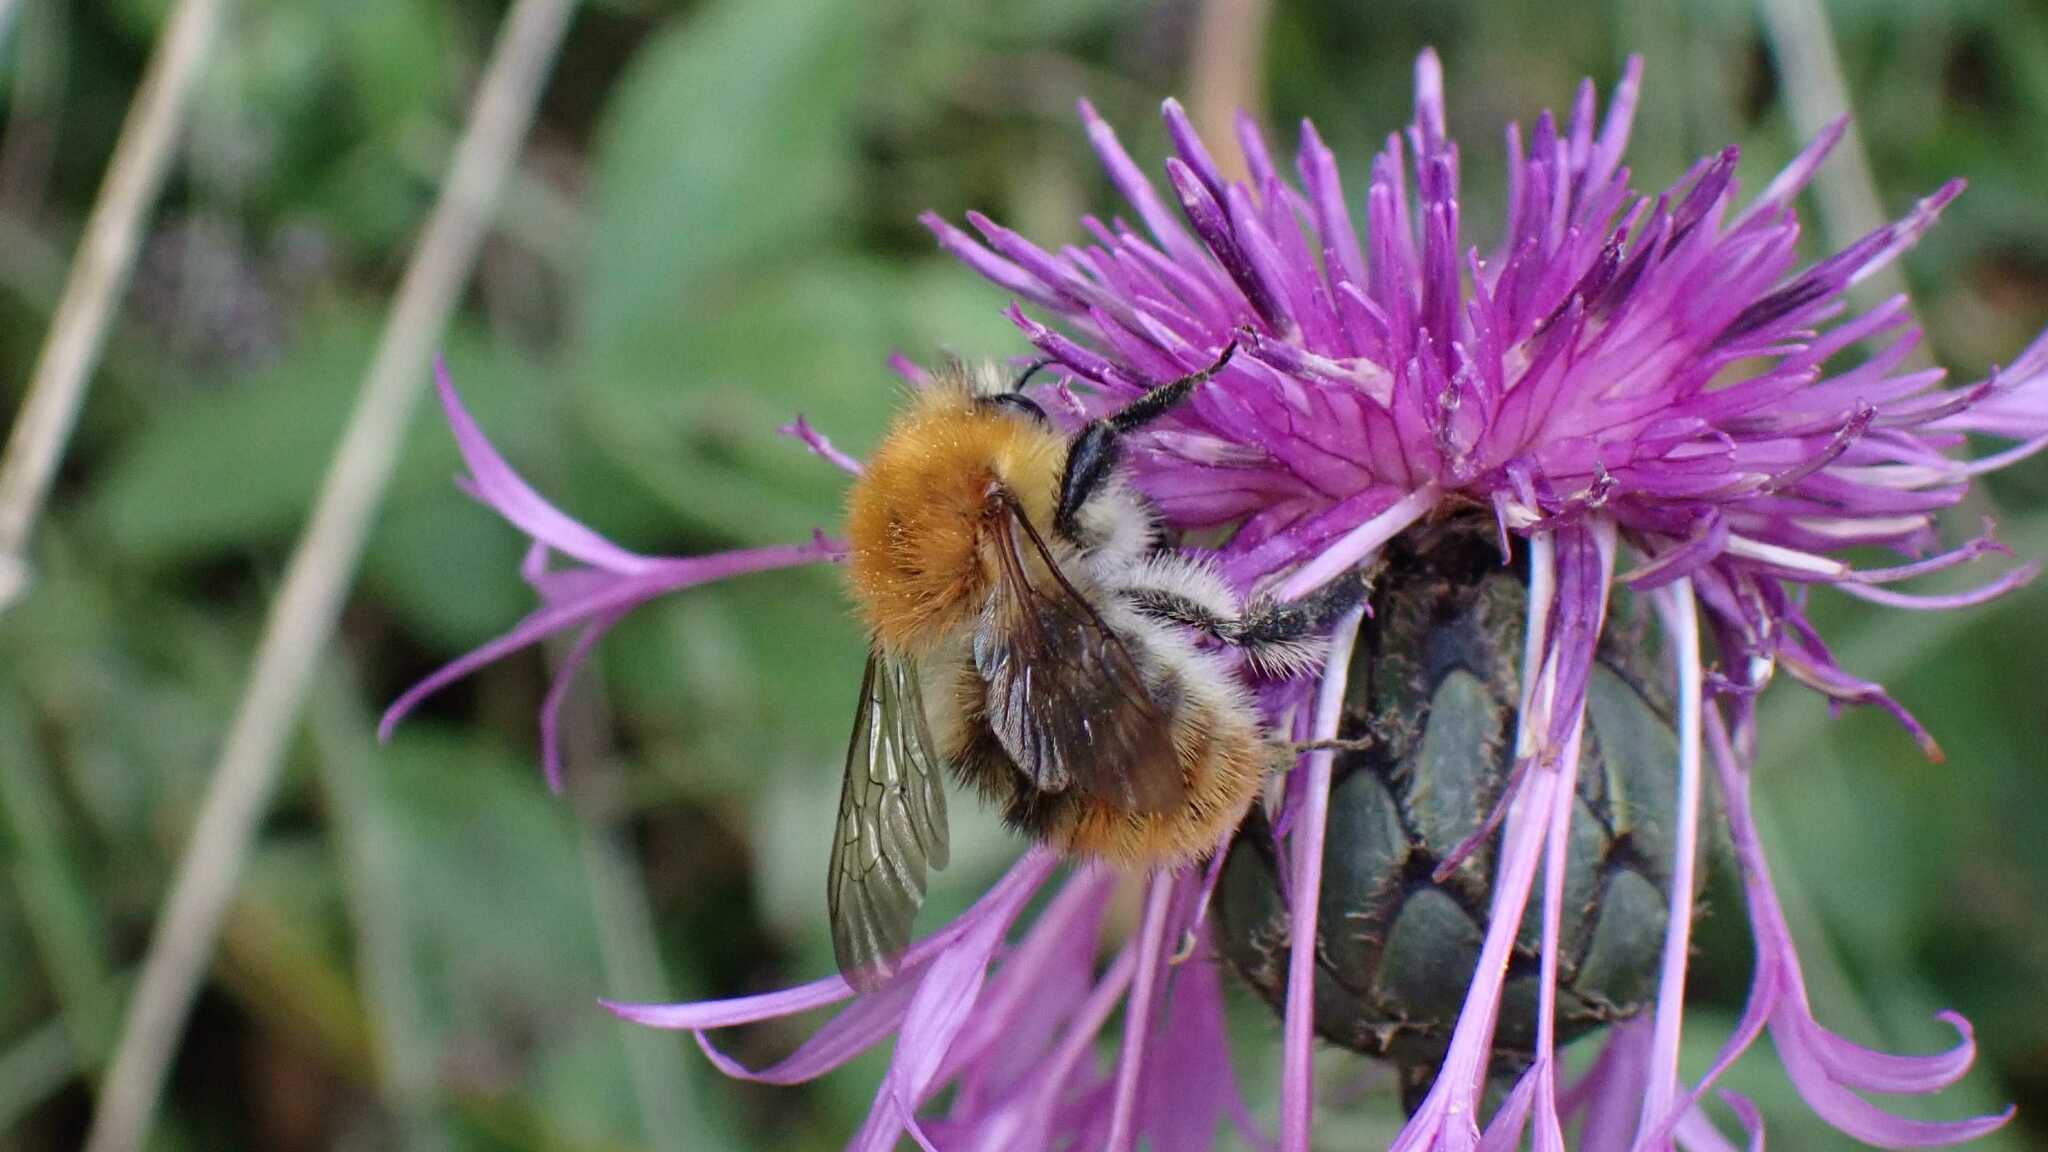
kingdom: Animalia
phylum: Arthropoda
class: Insecta
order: Hymenoptera
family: Apidae
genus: Bombus
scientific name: Bombus pascuorum
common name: Common carder bee
